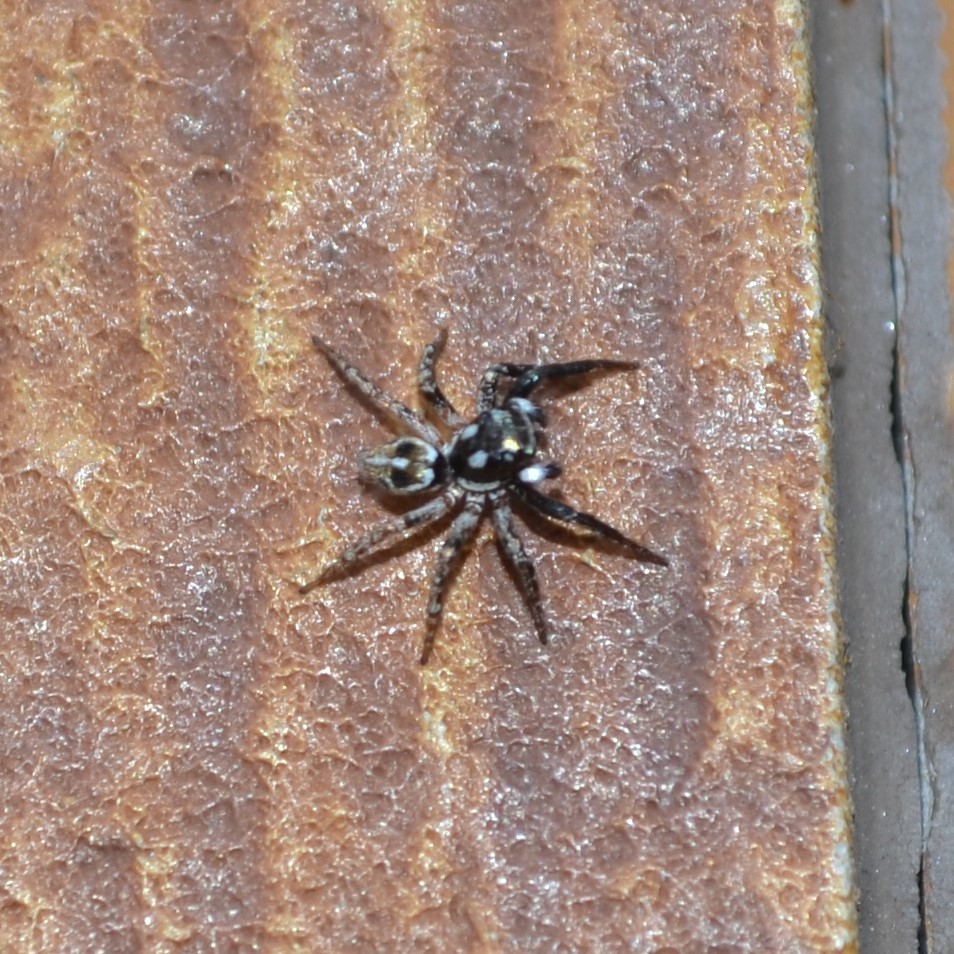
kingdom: Animalia
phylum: Arthropoda
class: Arachnida
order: Araneae
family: Salticidae
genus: Anasaitis
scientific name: Anasaitis canosa
